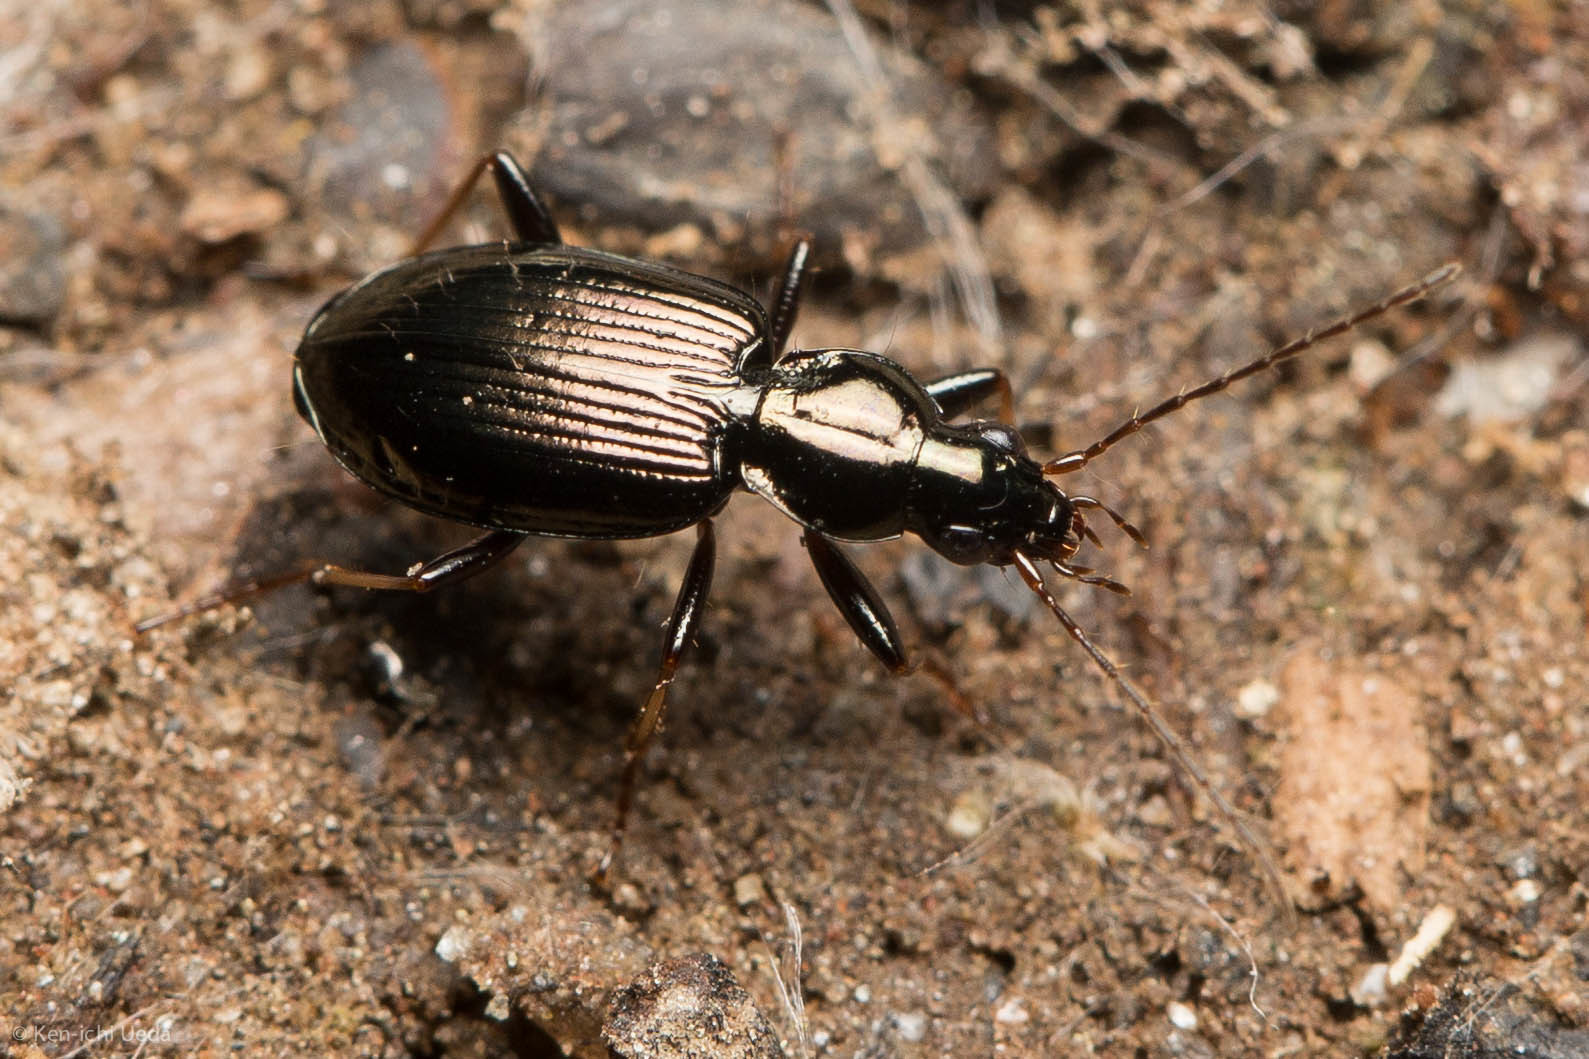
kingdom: Animalia
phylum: Arthropoda
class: Insecta
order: Coleoptera
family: Carabidae
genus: Agonum
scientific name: Agonum ferreum
